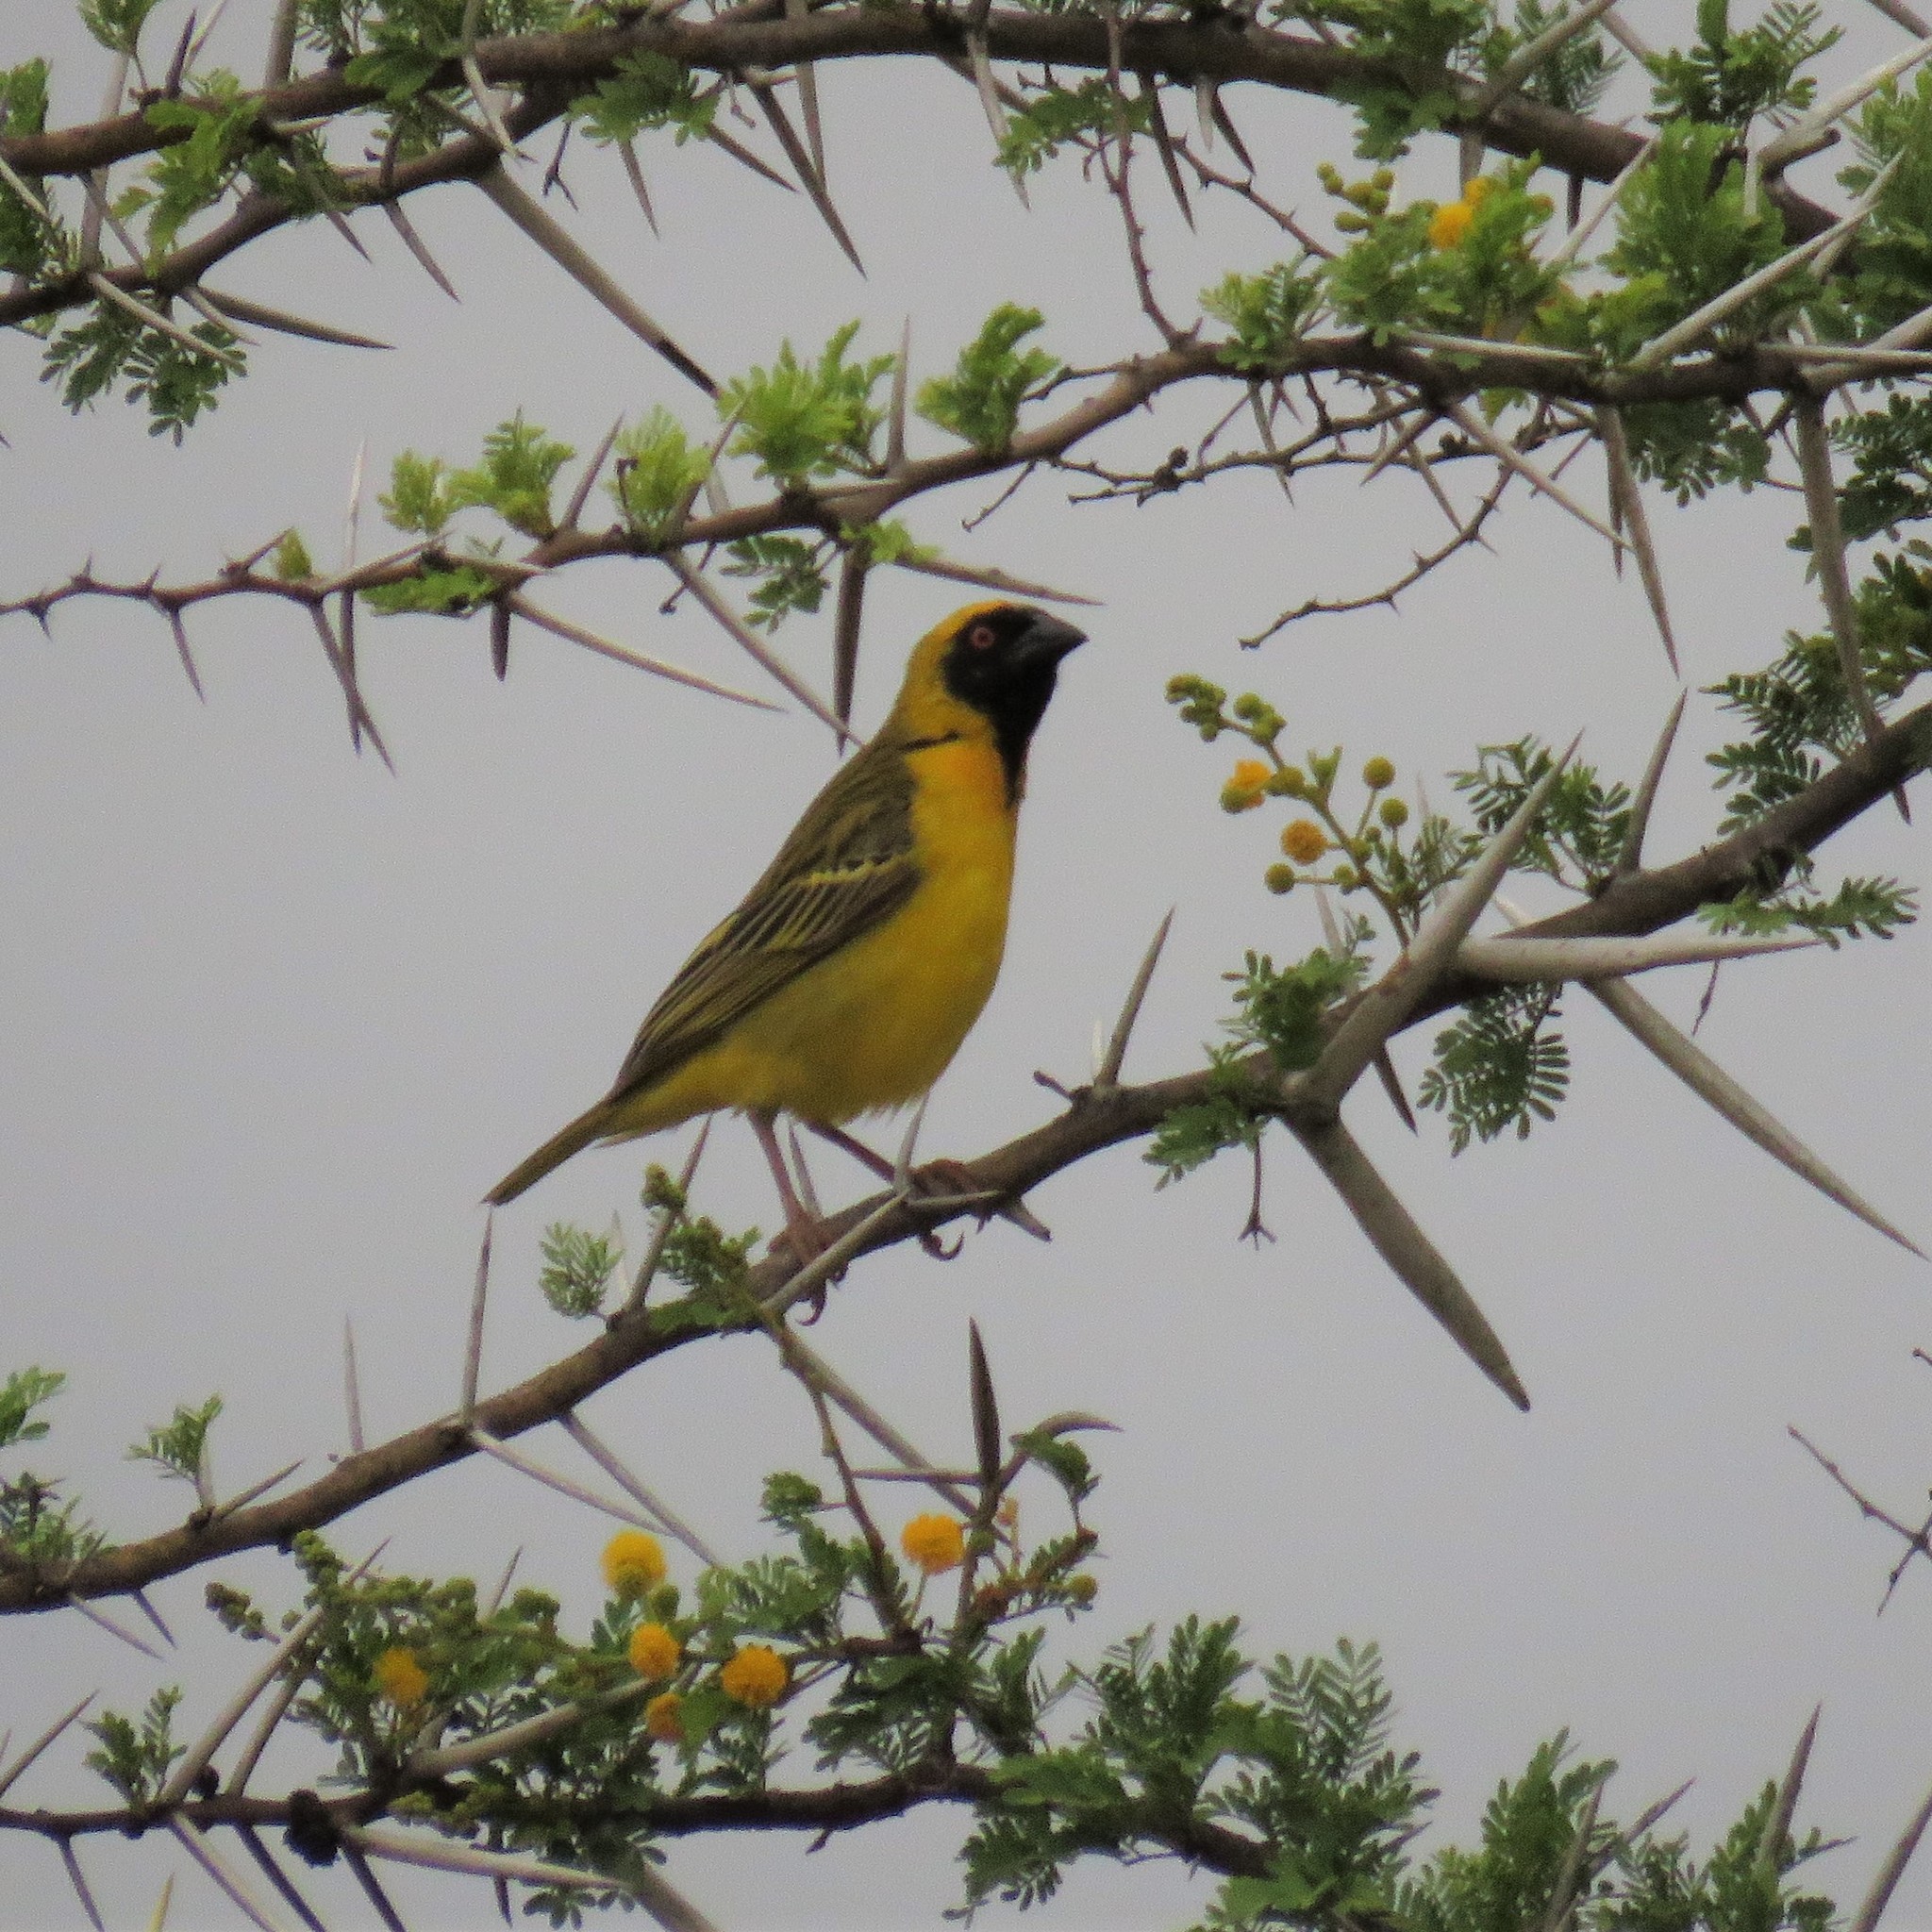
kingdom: Animalia
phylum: Chordata
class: Aves
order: Passeriformes
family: Ploceidae
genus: Ploceus
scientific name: Ploceus velatus
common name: Southern masked weaver
